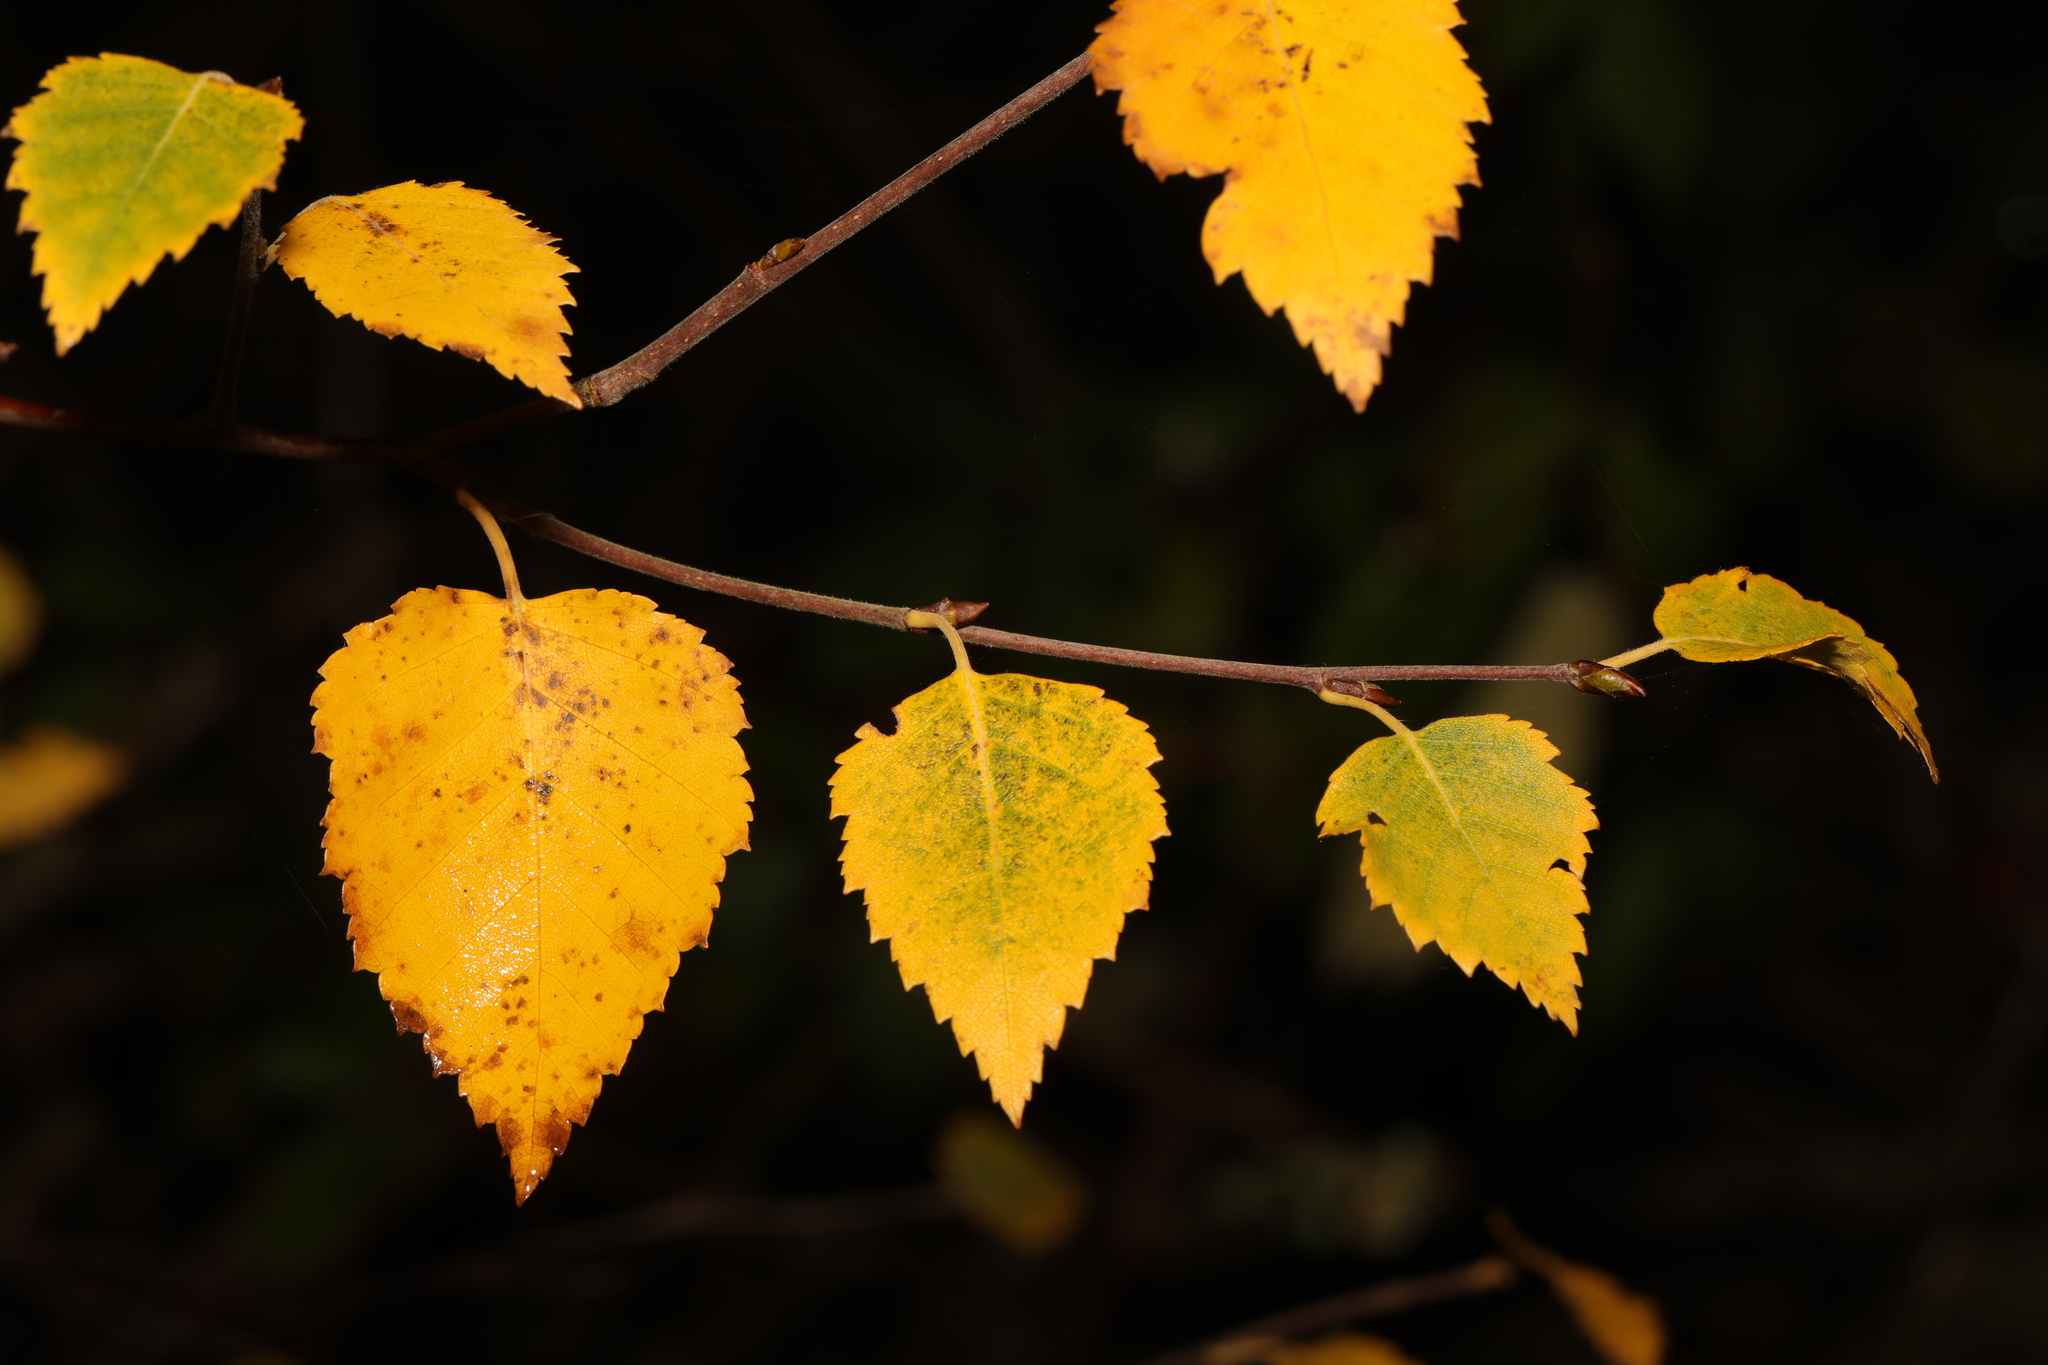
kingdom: Plantae
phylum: Tracheophyta
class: Magnoliopsida
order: Fagales
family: Betulaceae
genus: Betula
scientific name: Betula pendula
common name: Silver birch
